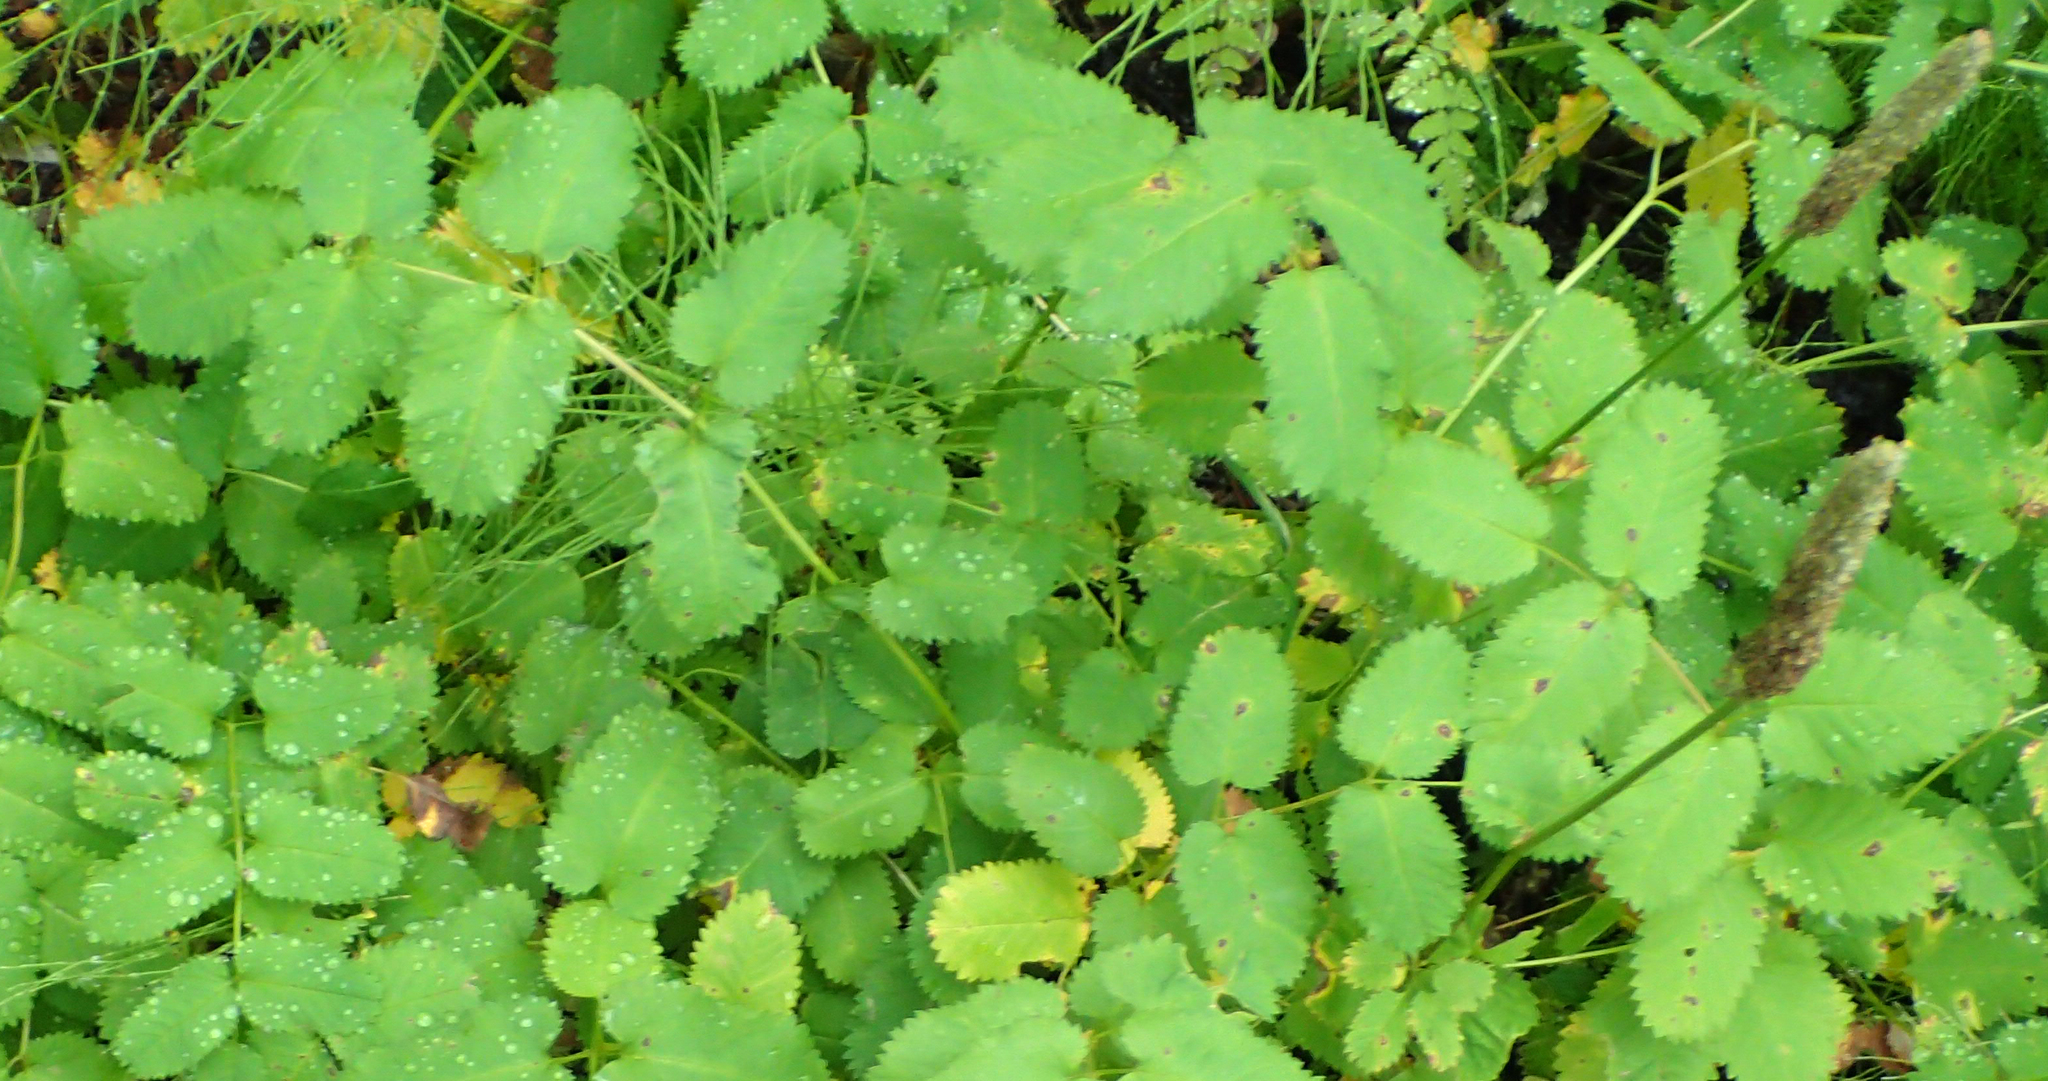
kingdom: Plantae
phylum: Tracheophyta
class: Magnoliopsida
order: Rosales
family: Rosaceae
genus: Sanguisorba
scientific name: Sanguisorba stipulata
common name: Sitka burnet
